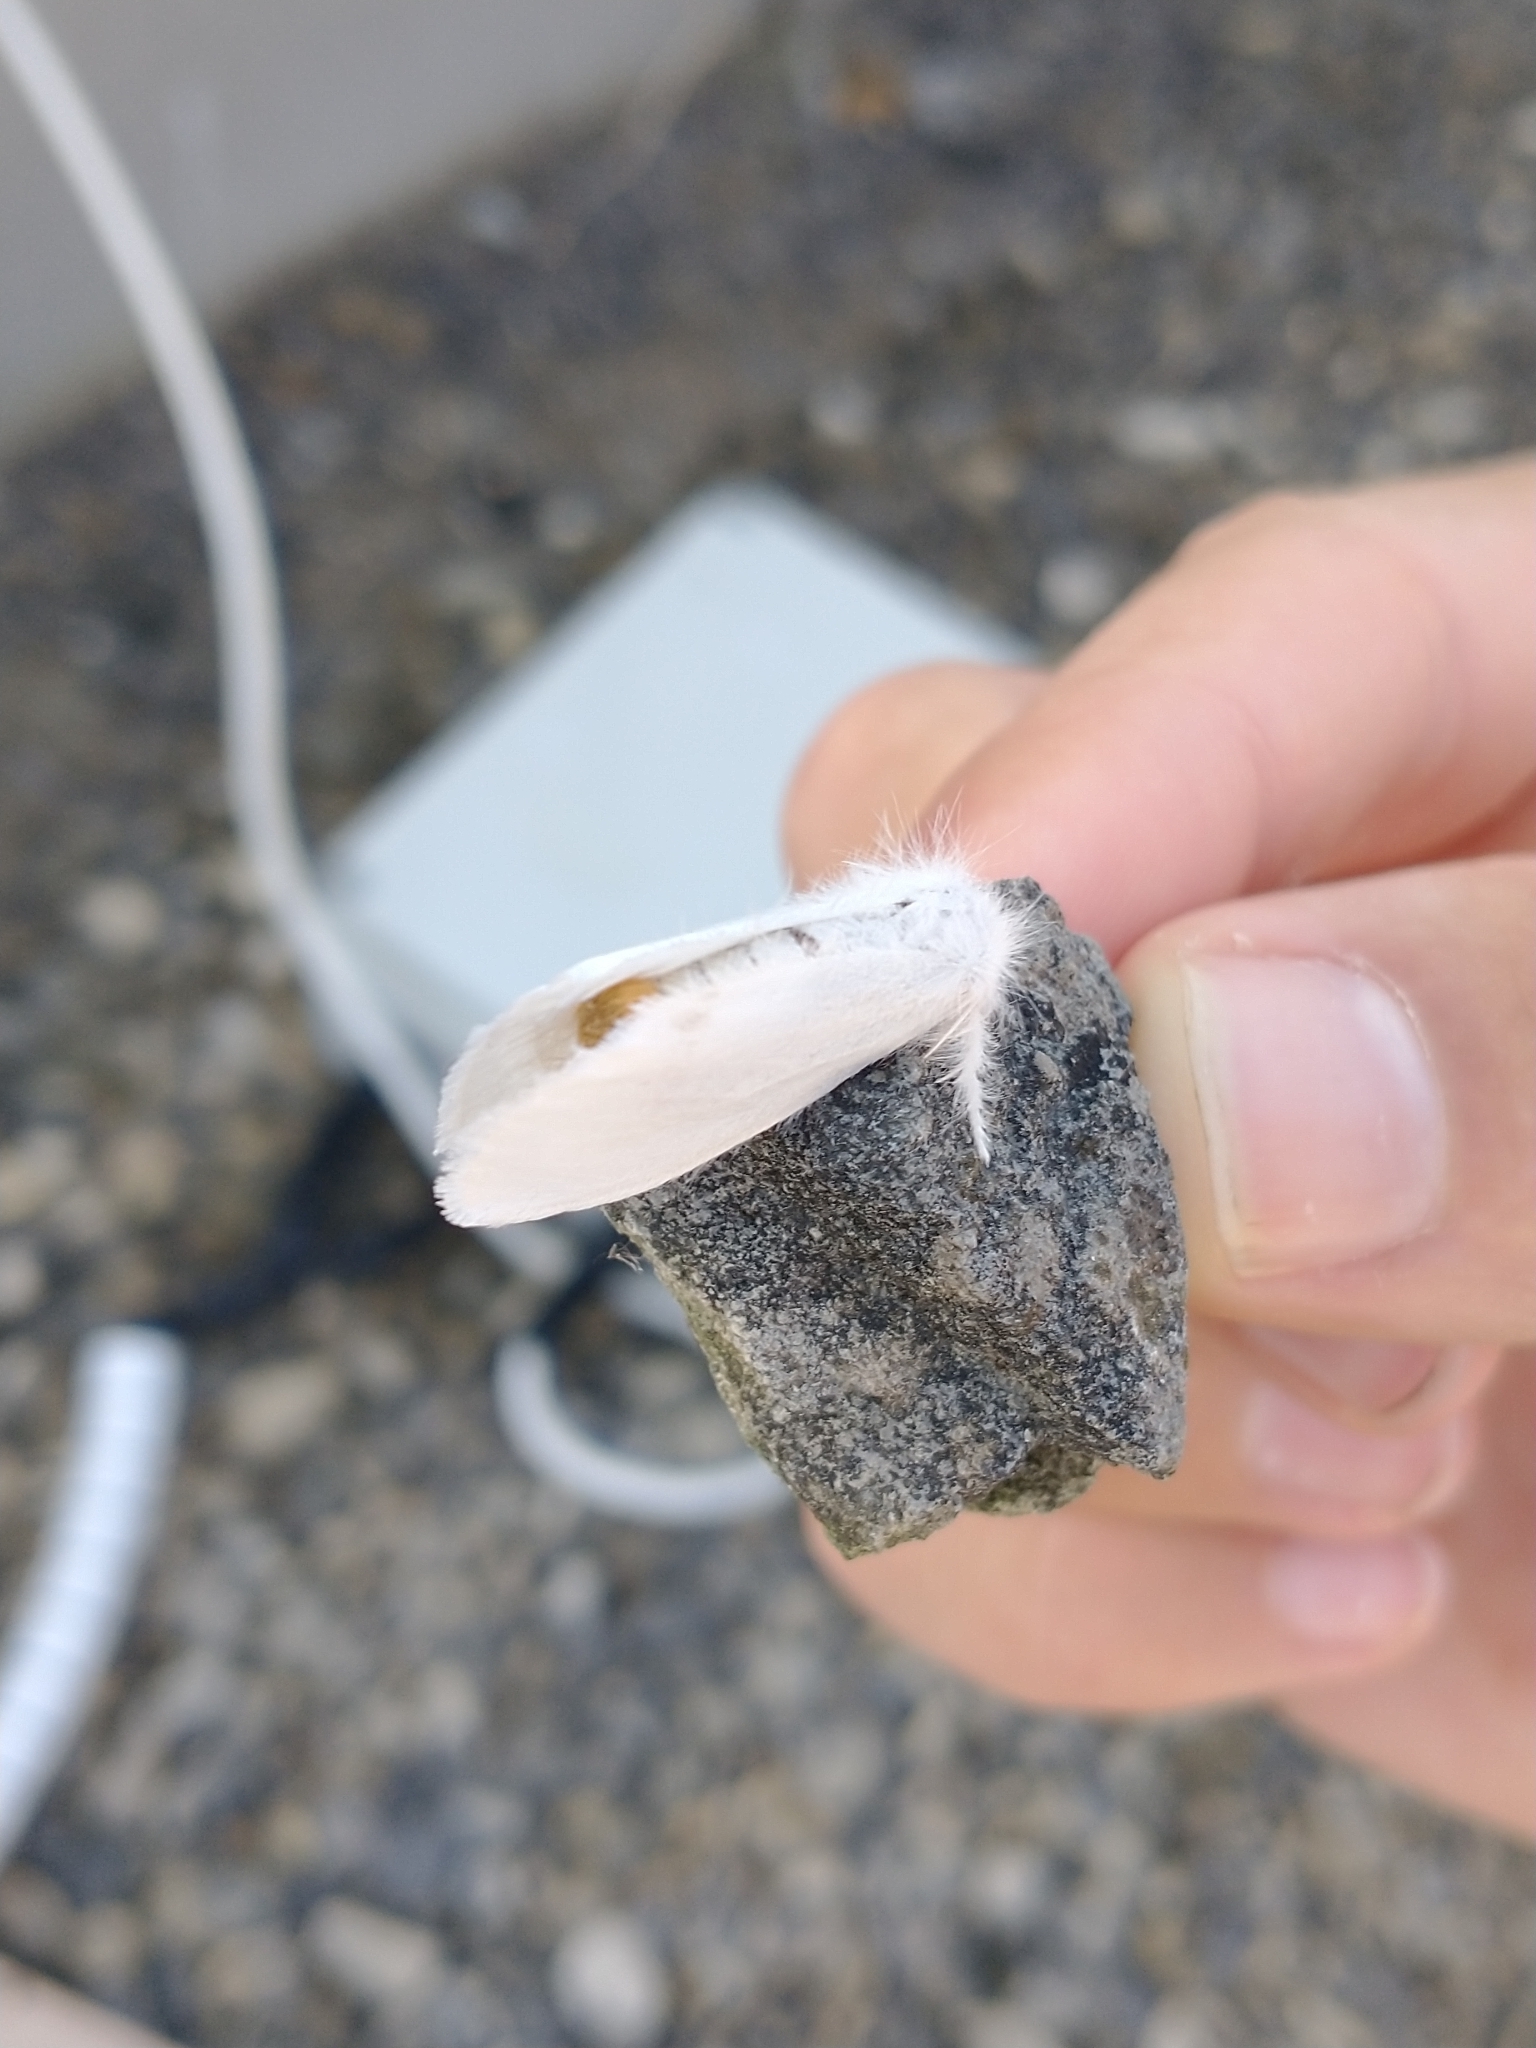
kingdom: Animalia
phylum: Arthropoda
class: Insecta
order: Lepidoptera
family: Erebidae
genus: Sphrageidus
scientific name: Sphrageidus similis
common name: Yellow-tail
